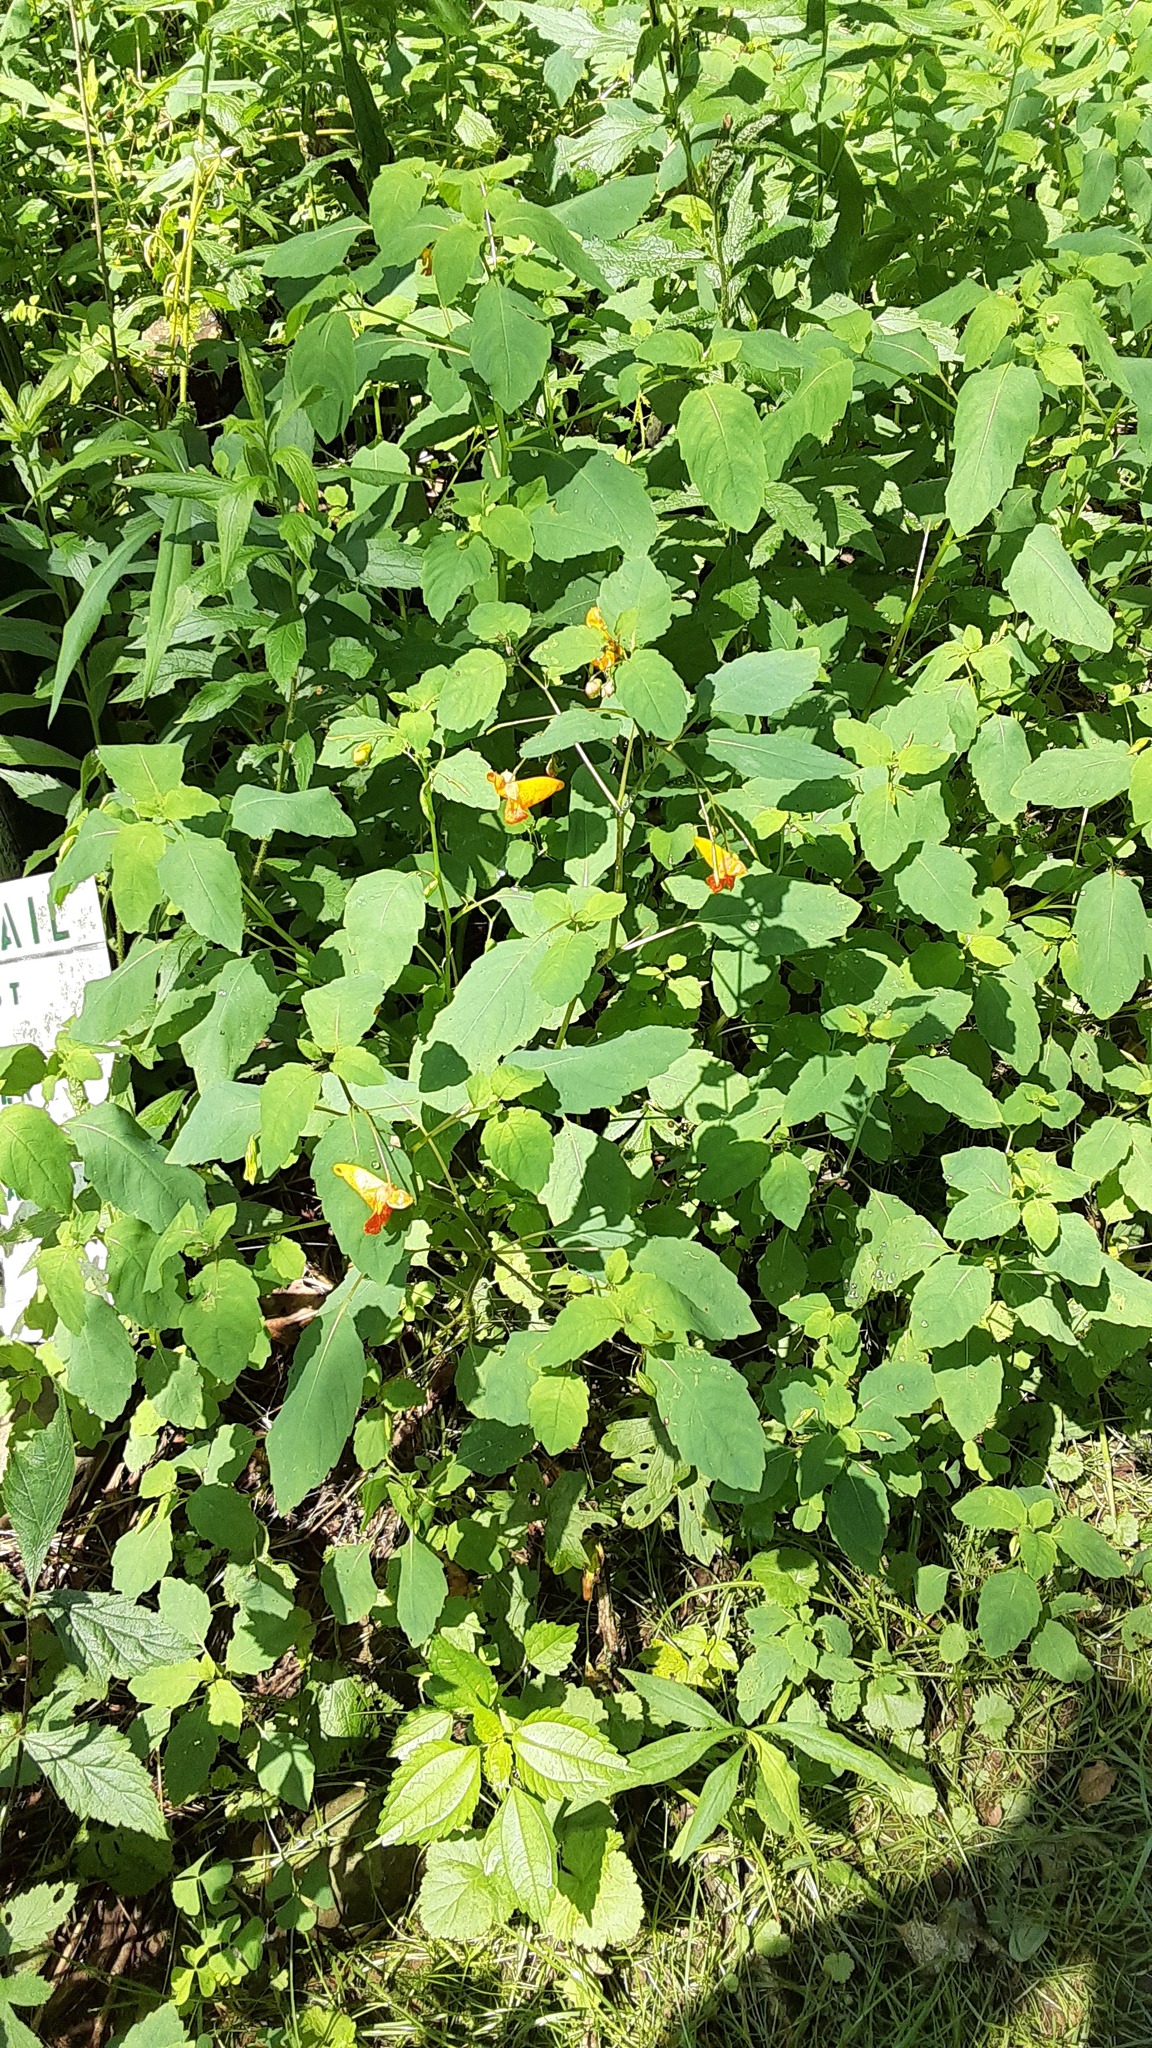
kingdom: Plantae
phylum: Tracheophyta
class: Magnoliopsida
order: Ericales
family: Balsaminaceae
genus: Impatiens
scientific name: Impatiens capensis
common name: Orange balsam
